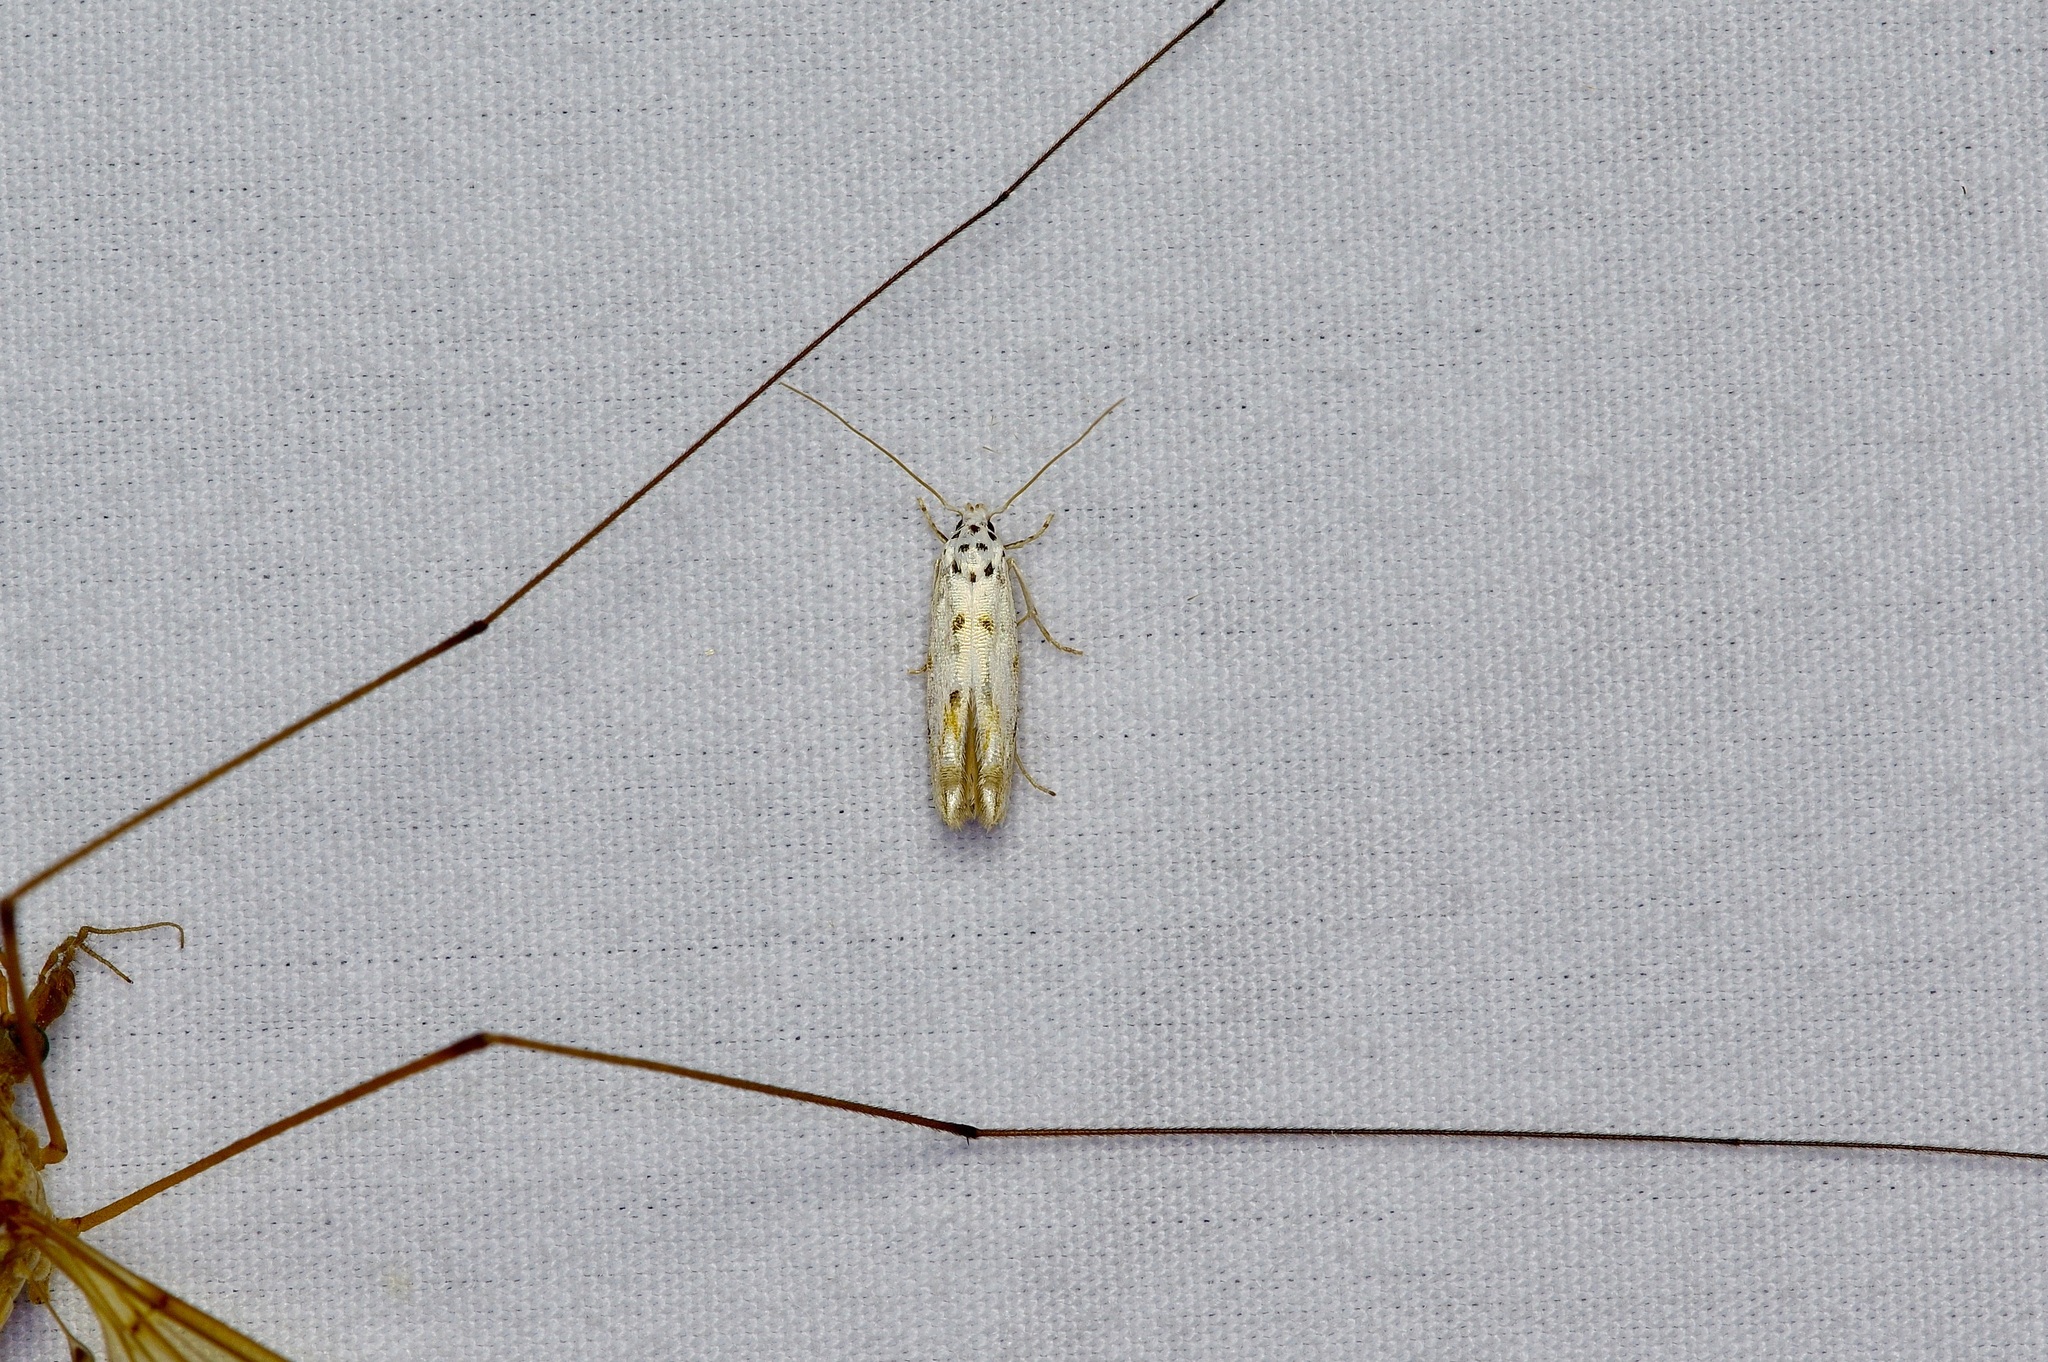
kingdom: Animalia
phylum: Arthropoda
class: Insecta
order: Lepidoptera
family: Momphidae
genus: Mompha
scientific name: Mompha eloisella
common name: Red-streaked mompha moth
